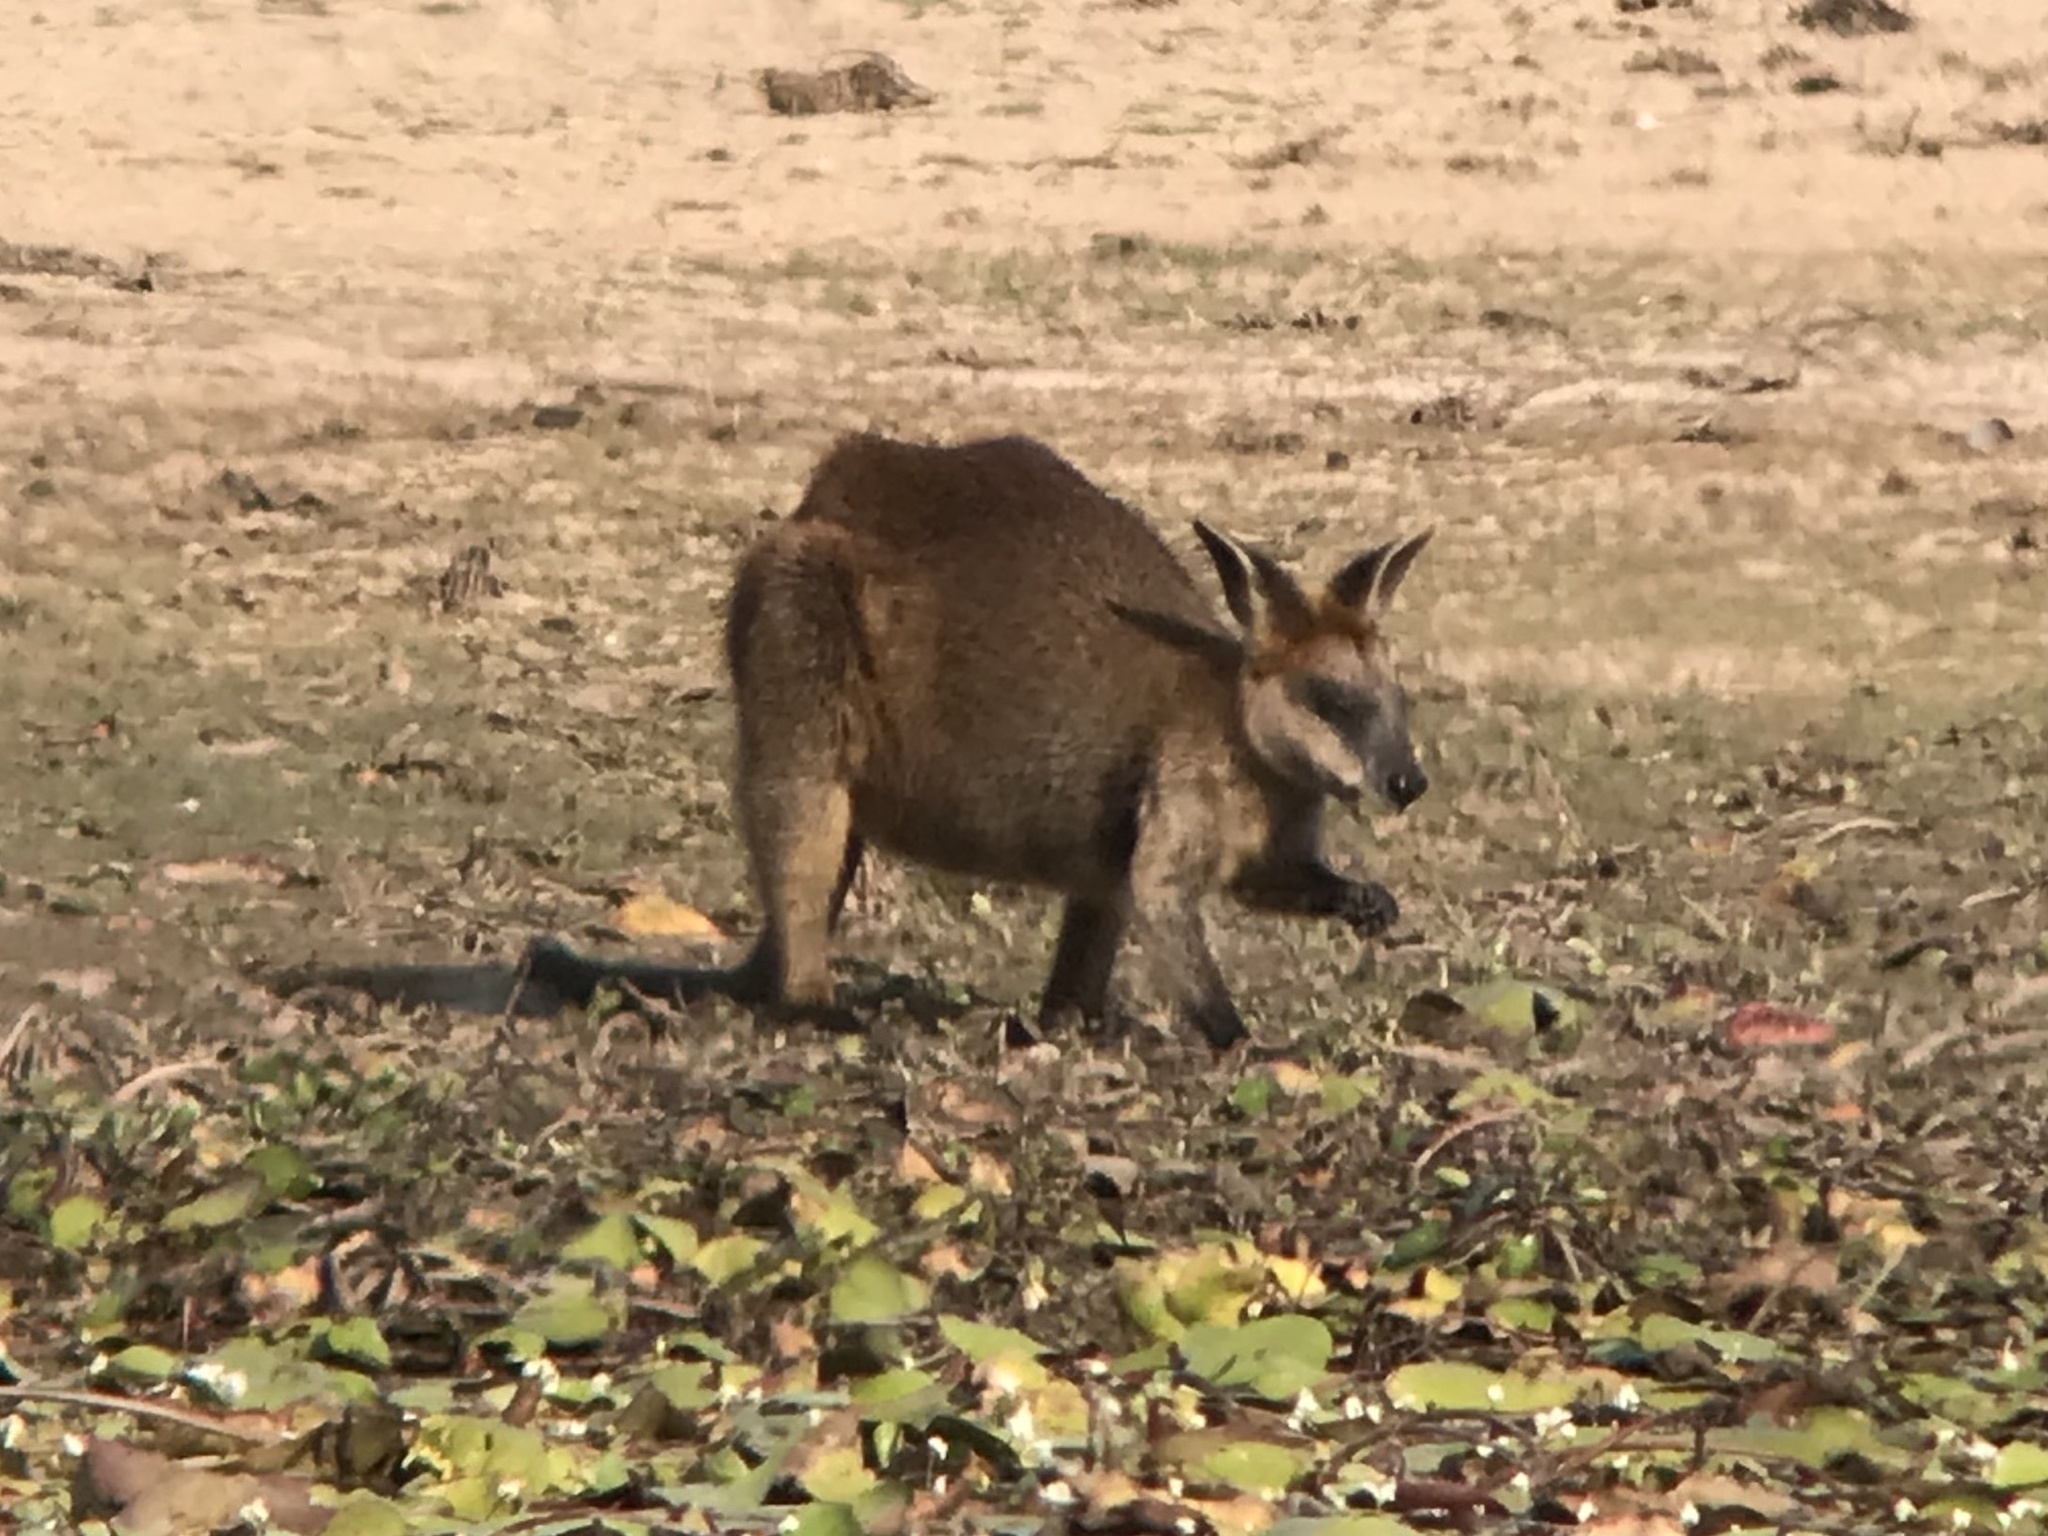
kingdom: Animalia
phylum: Chordata
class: Mammalia
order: Diprotodontia
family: Macropodidae
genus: Wallabia
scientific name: Wallabia bicolor
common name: Swamp wallaby
